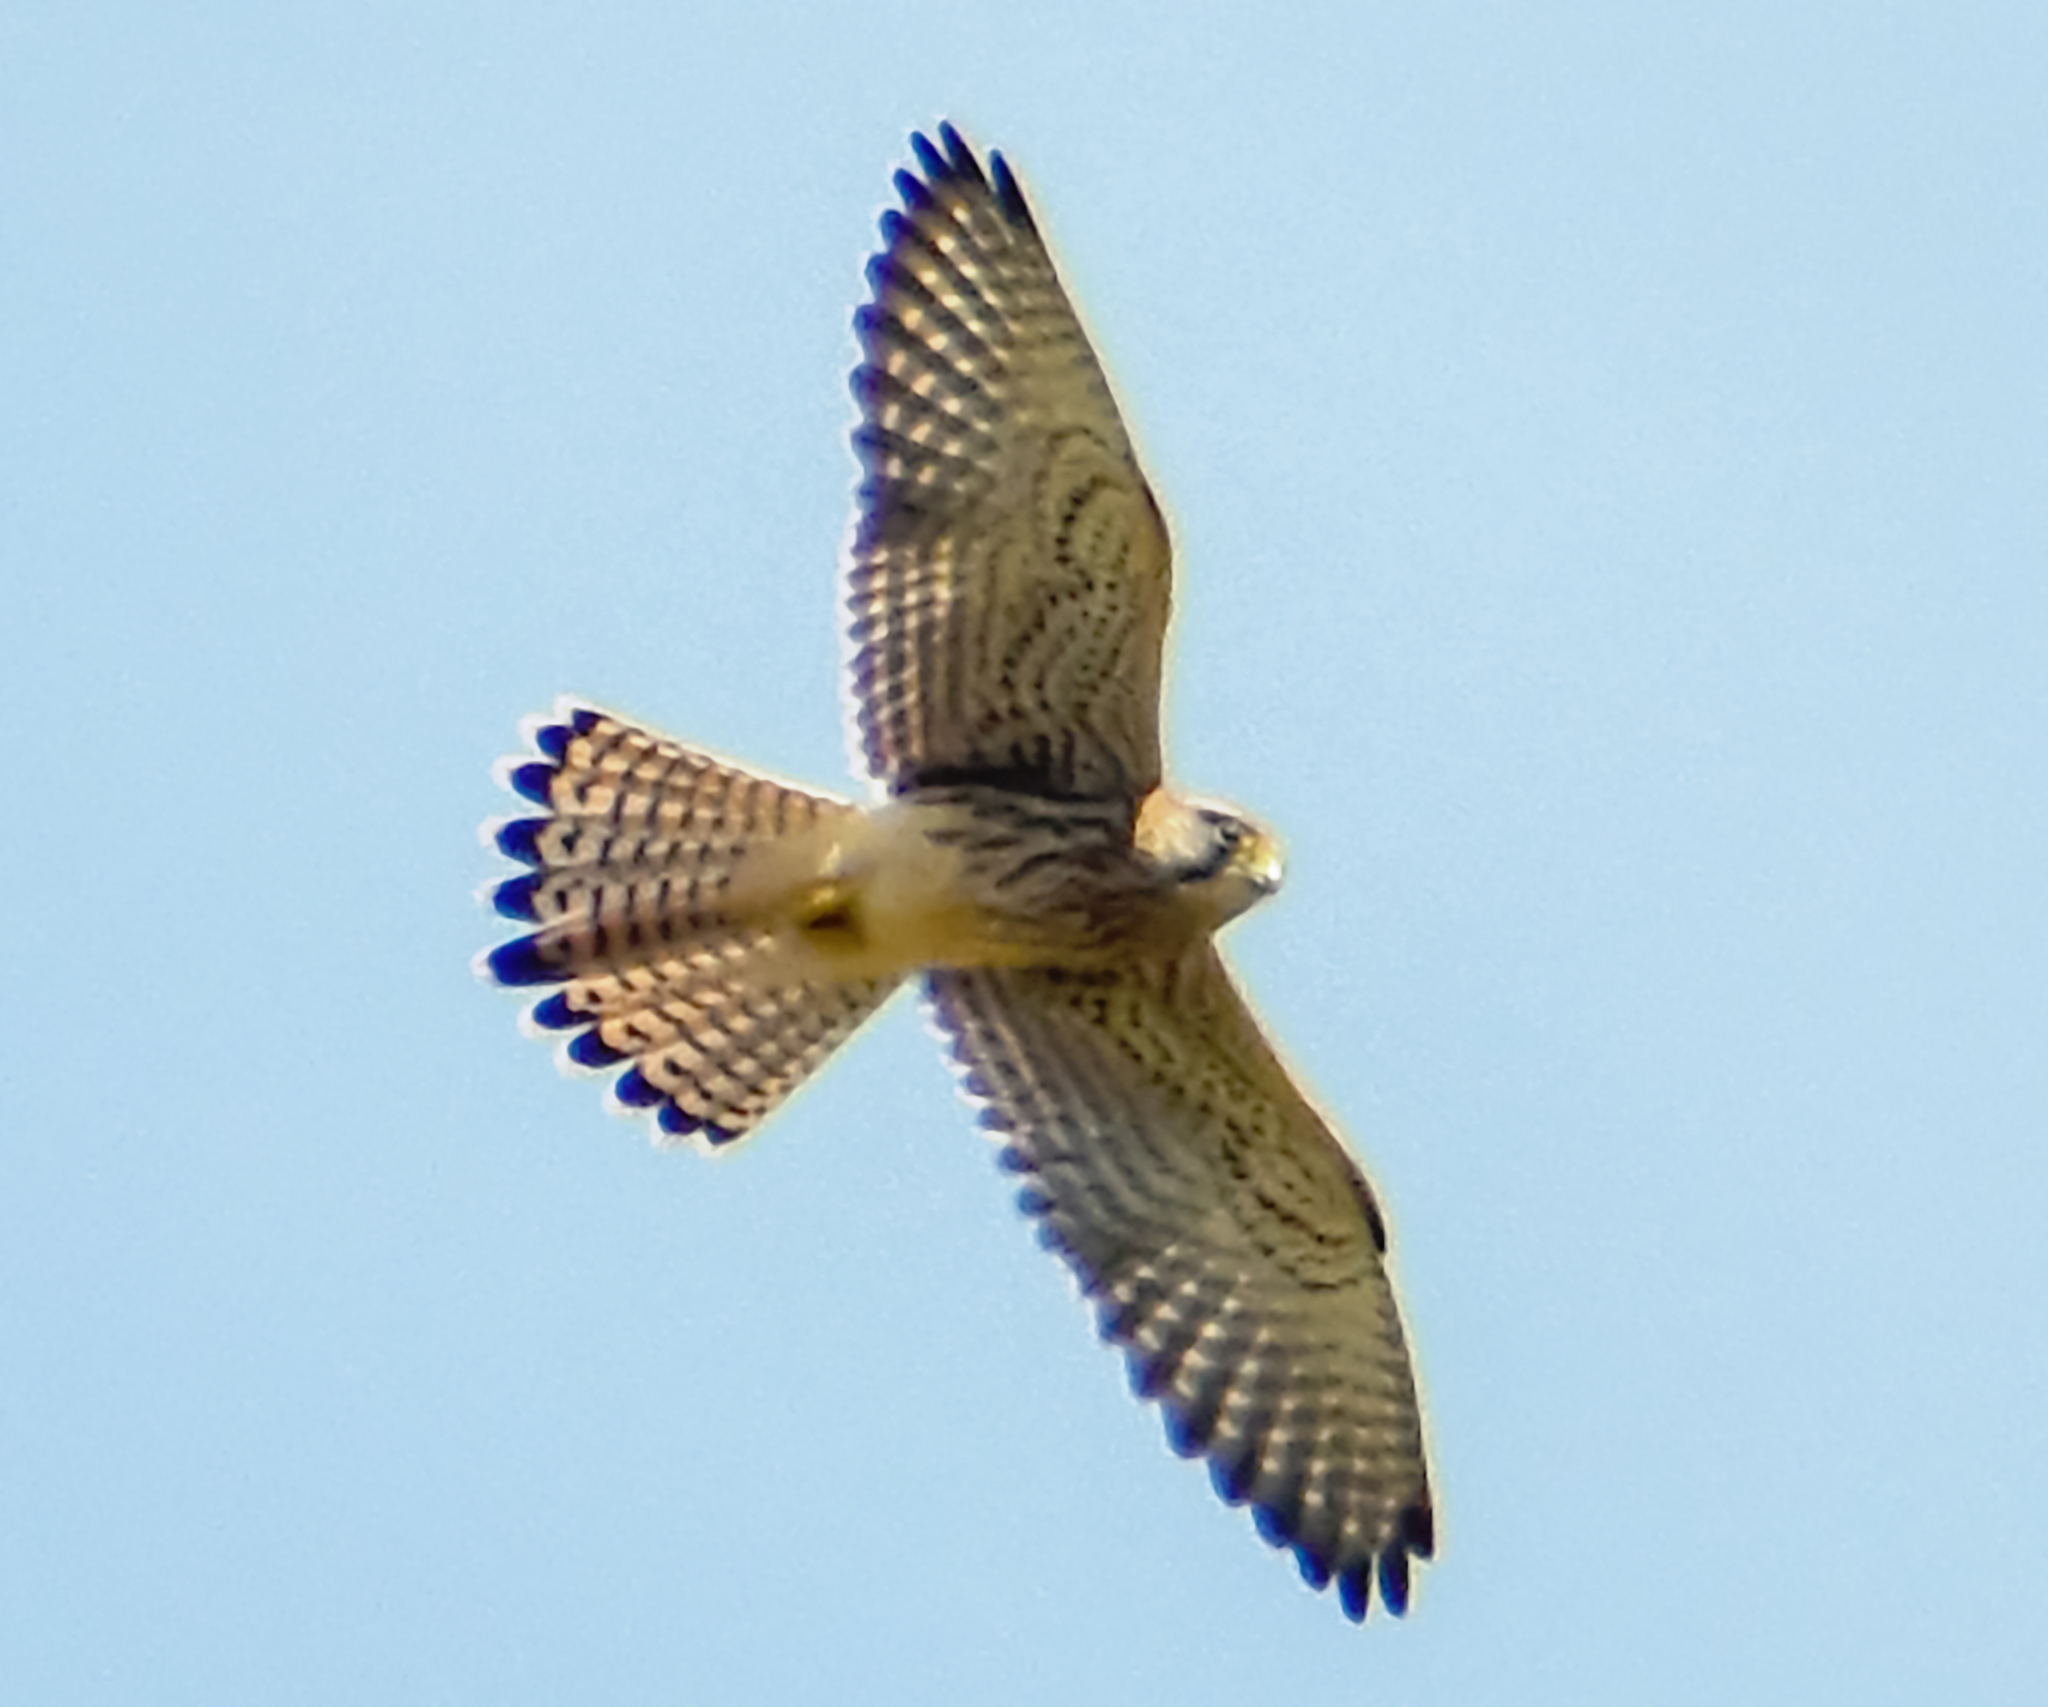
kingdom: Animalia
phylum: Chordata
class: Aves
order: Falconiformes
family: Falconidae
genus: Falco
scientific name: Falco tinnunculus
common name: Common kestrel
